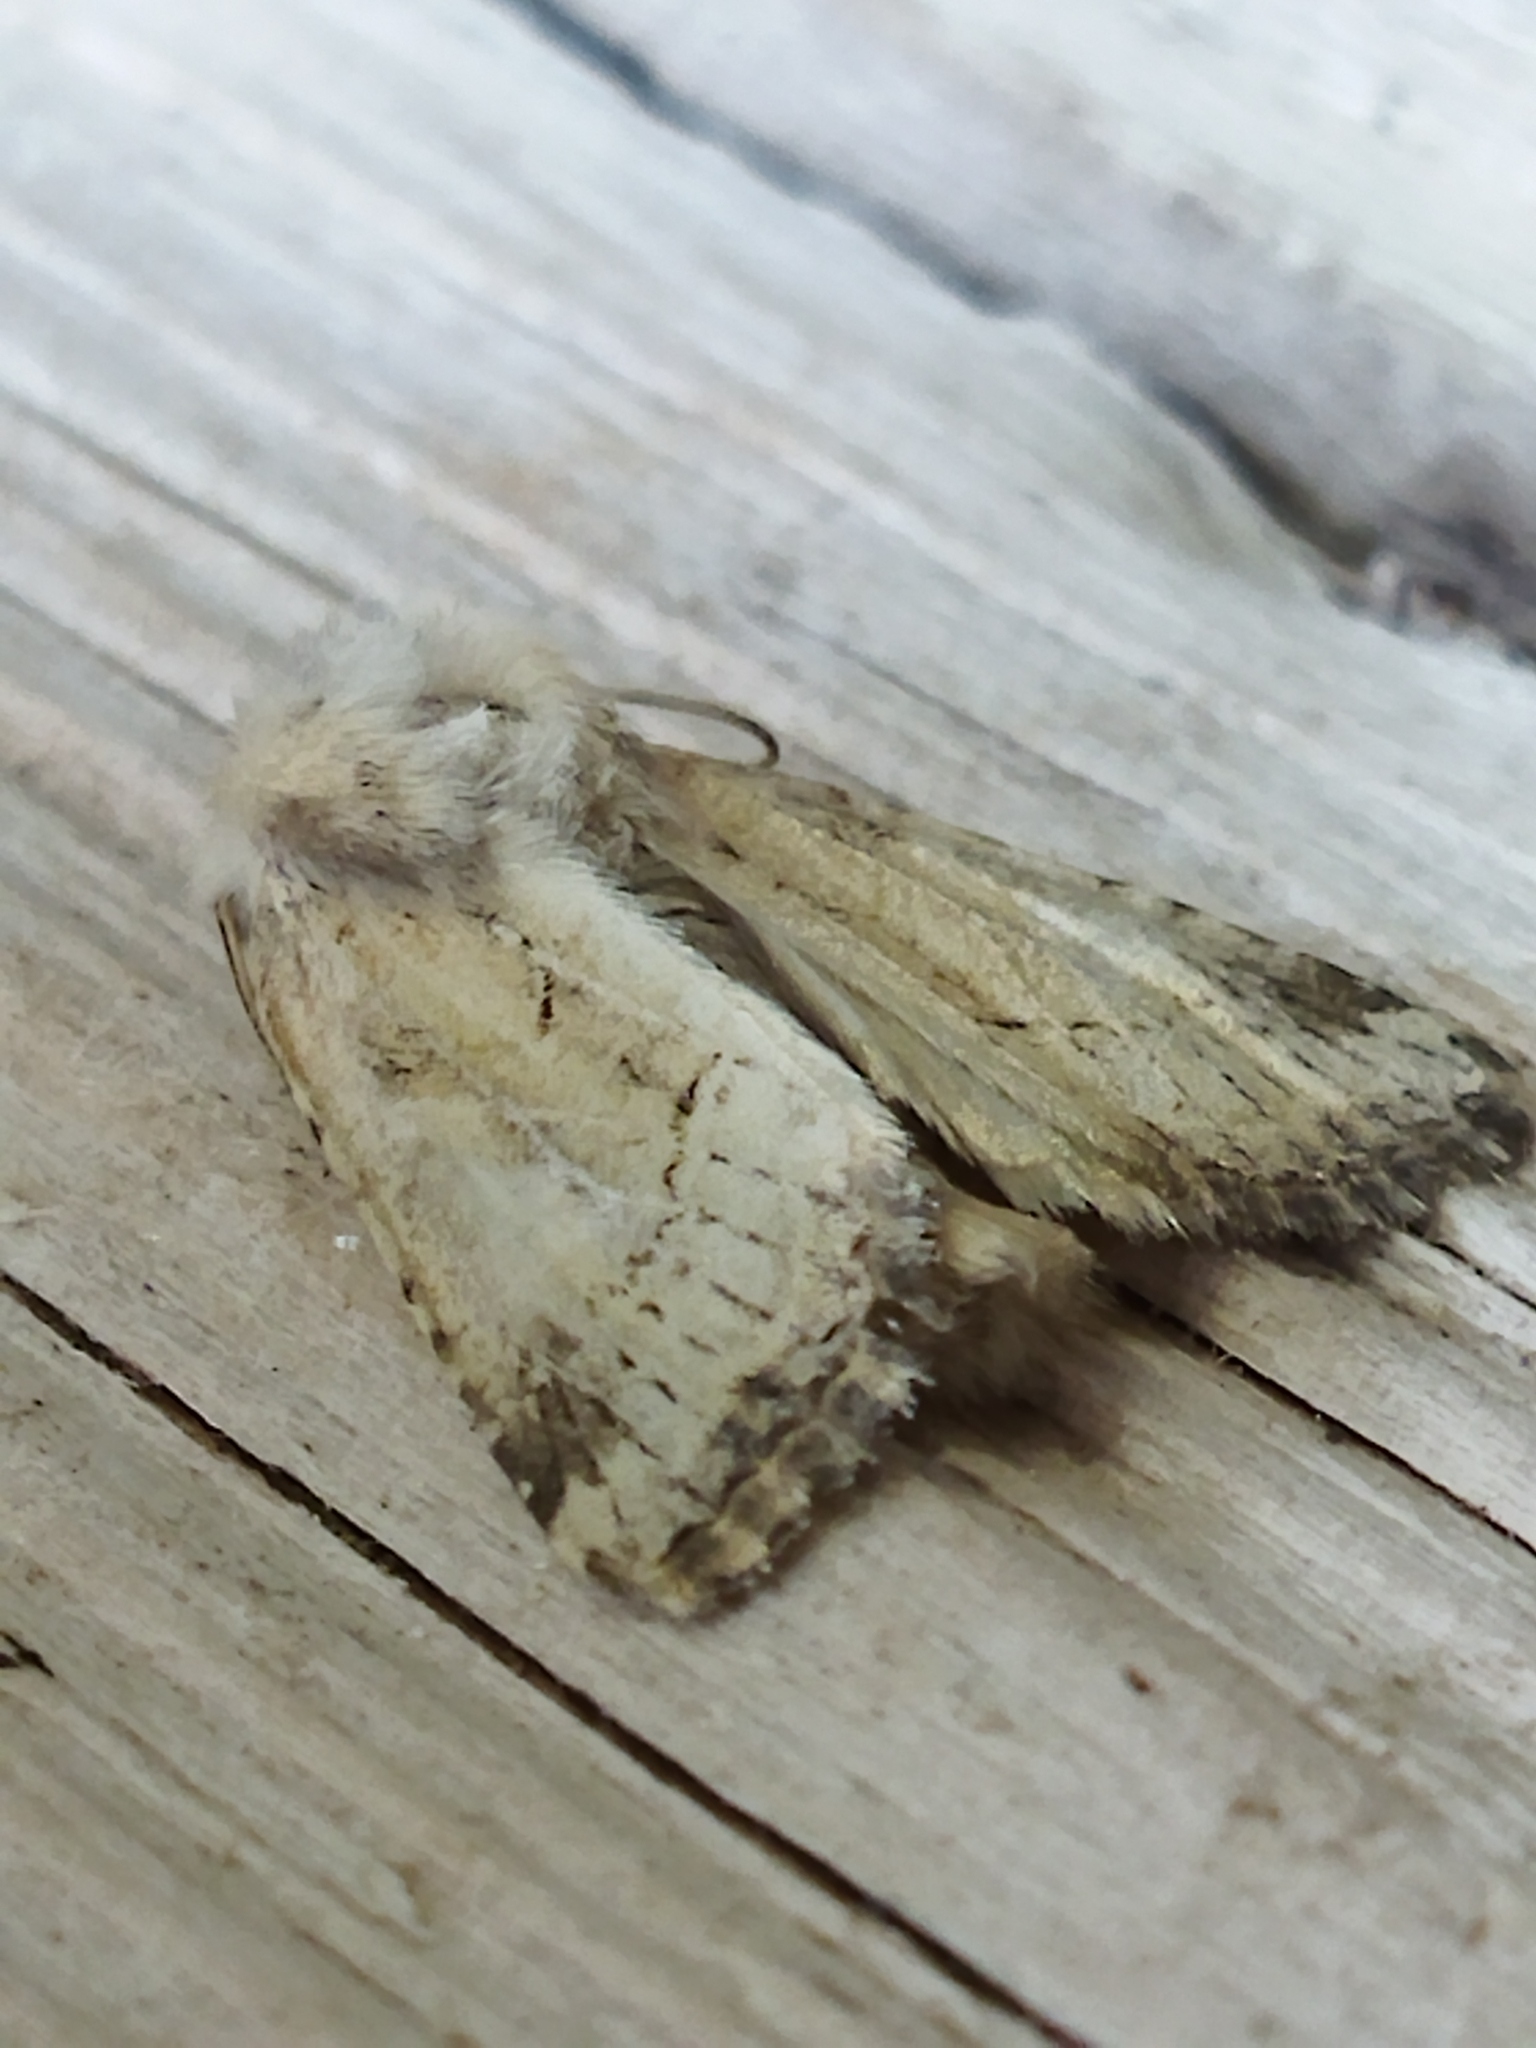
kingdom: Animalia
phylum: Arthropoda
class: Insecta
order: Lepidoptera
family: Noctuidae
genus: Luperina
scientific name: Luperina dumerilii
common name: Dumeril's rustic
